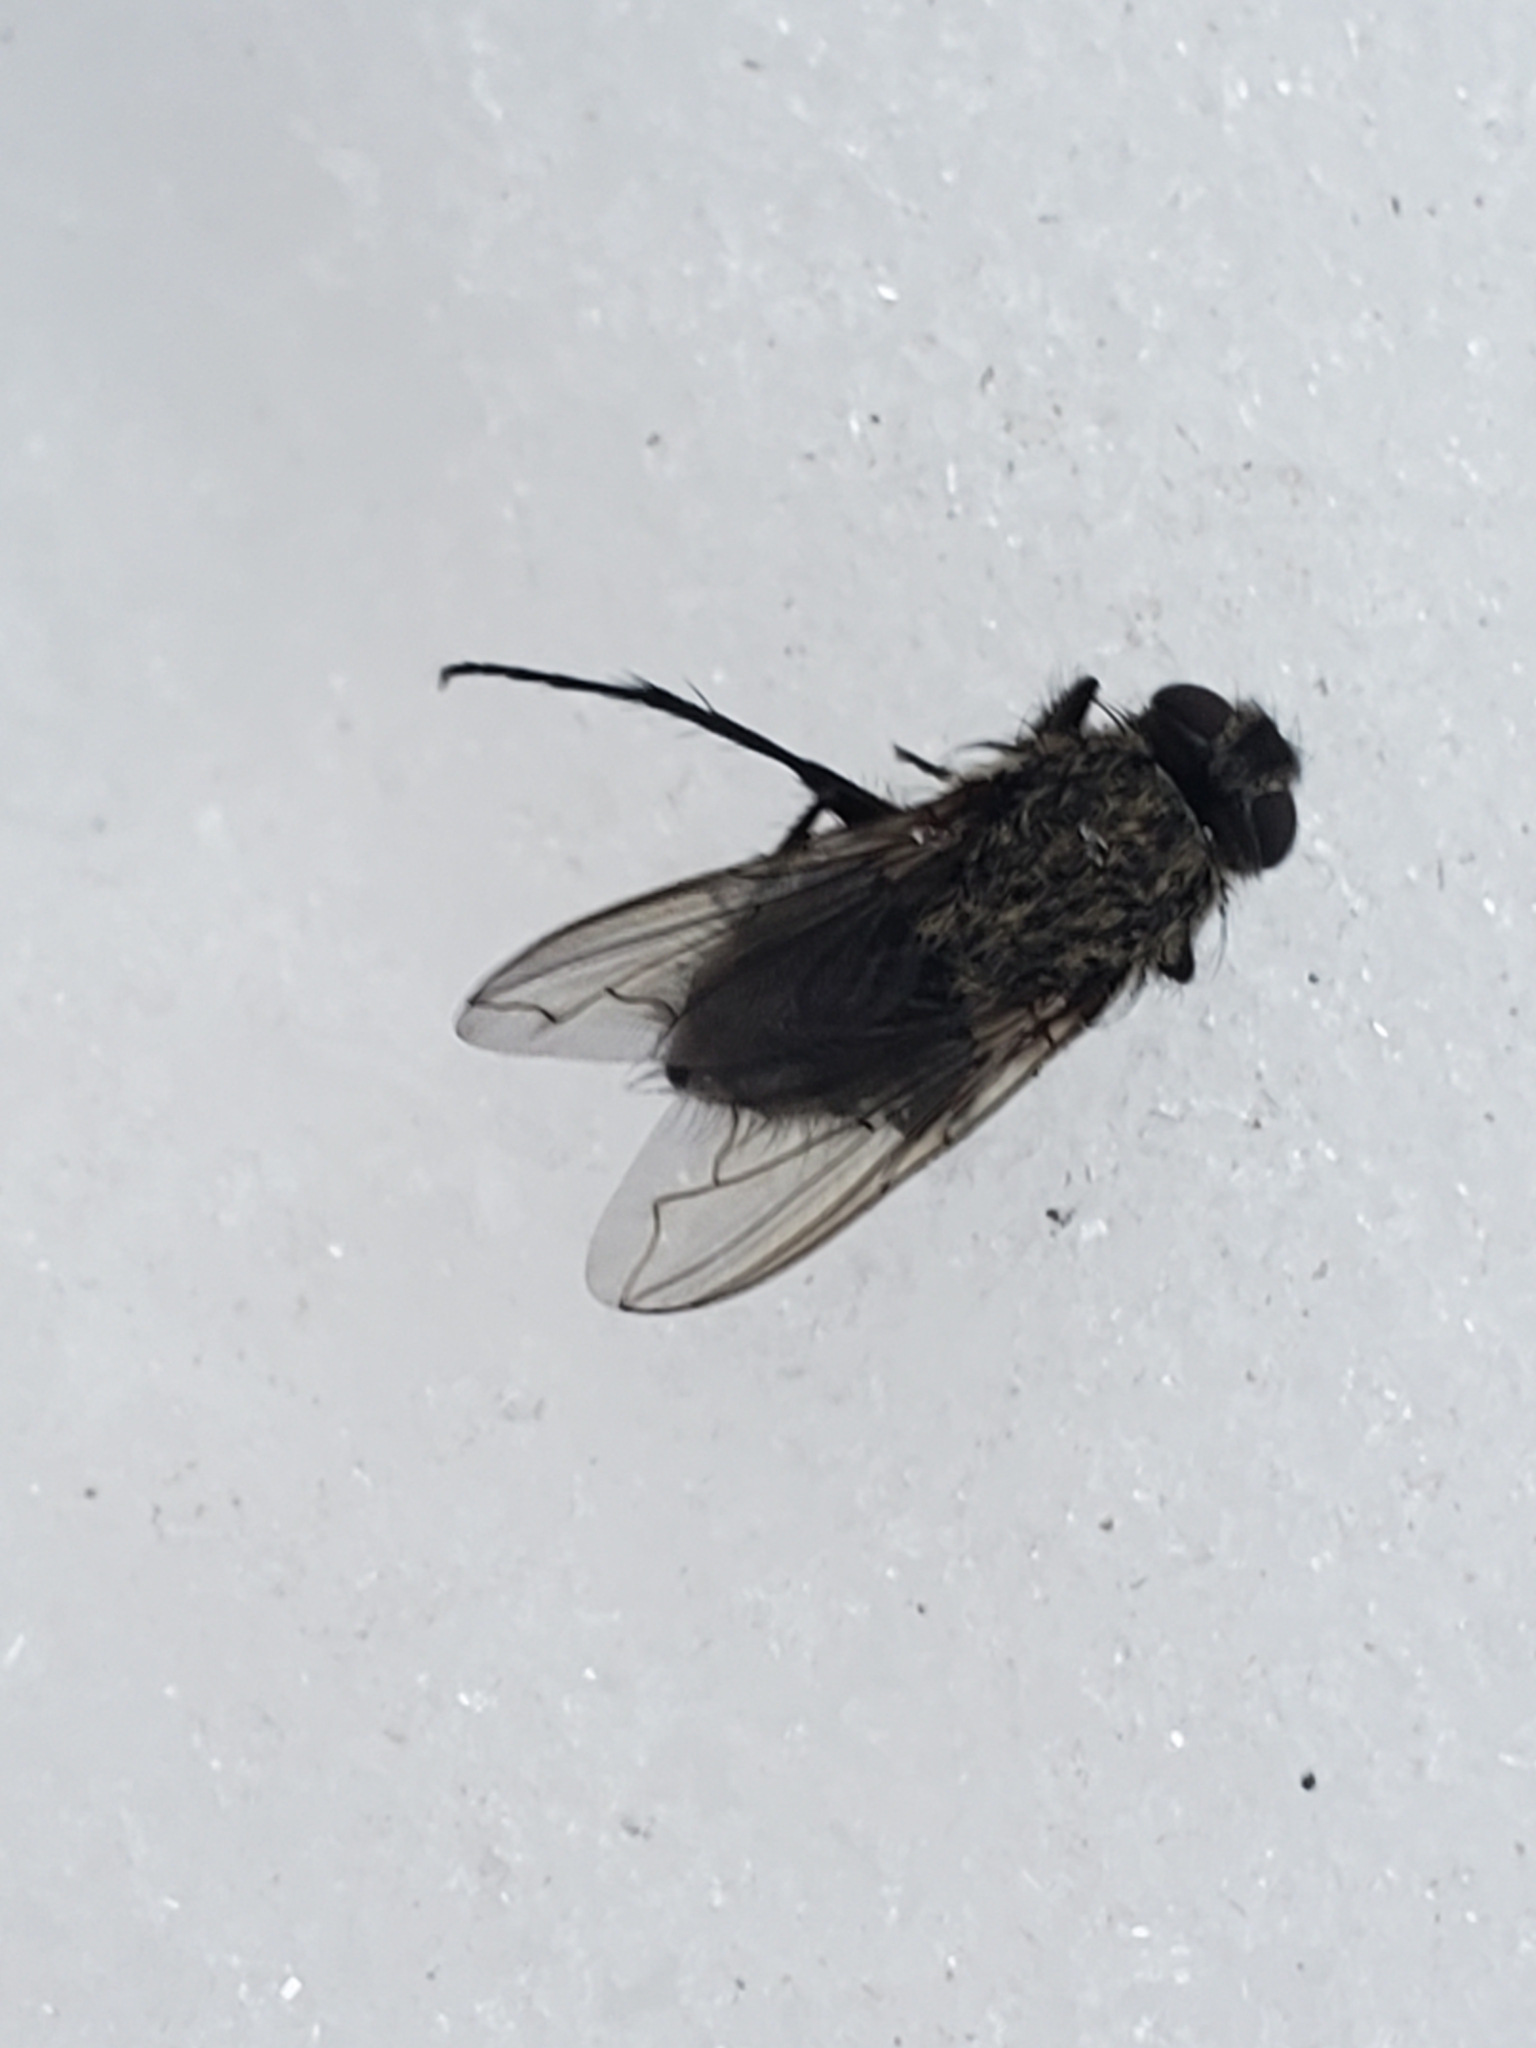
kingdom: Animalia
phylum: Arthropoda
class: Insecta
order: Diptera
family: Polleniidae
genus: Pollenia
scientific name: Pollenia
